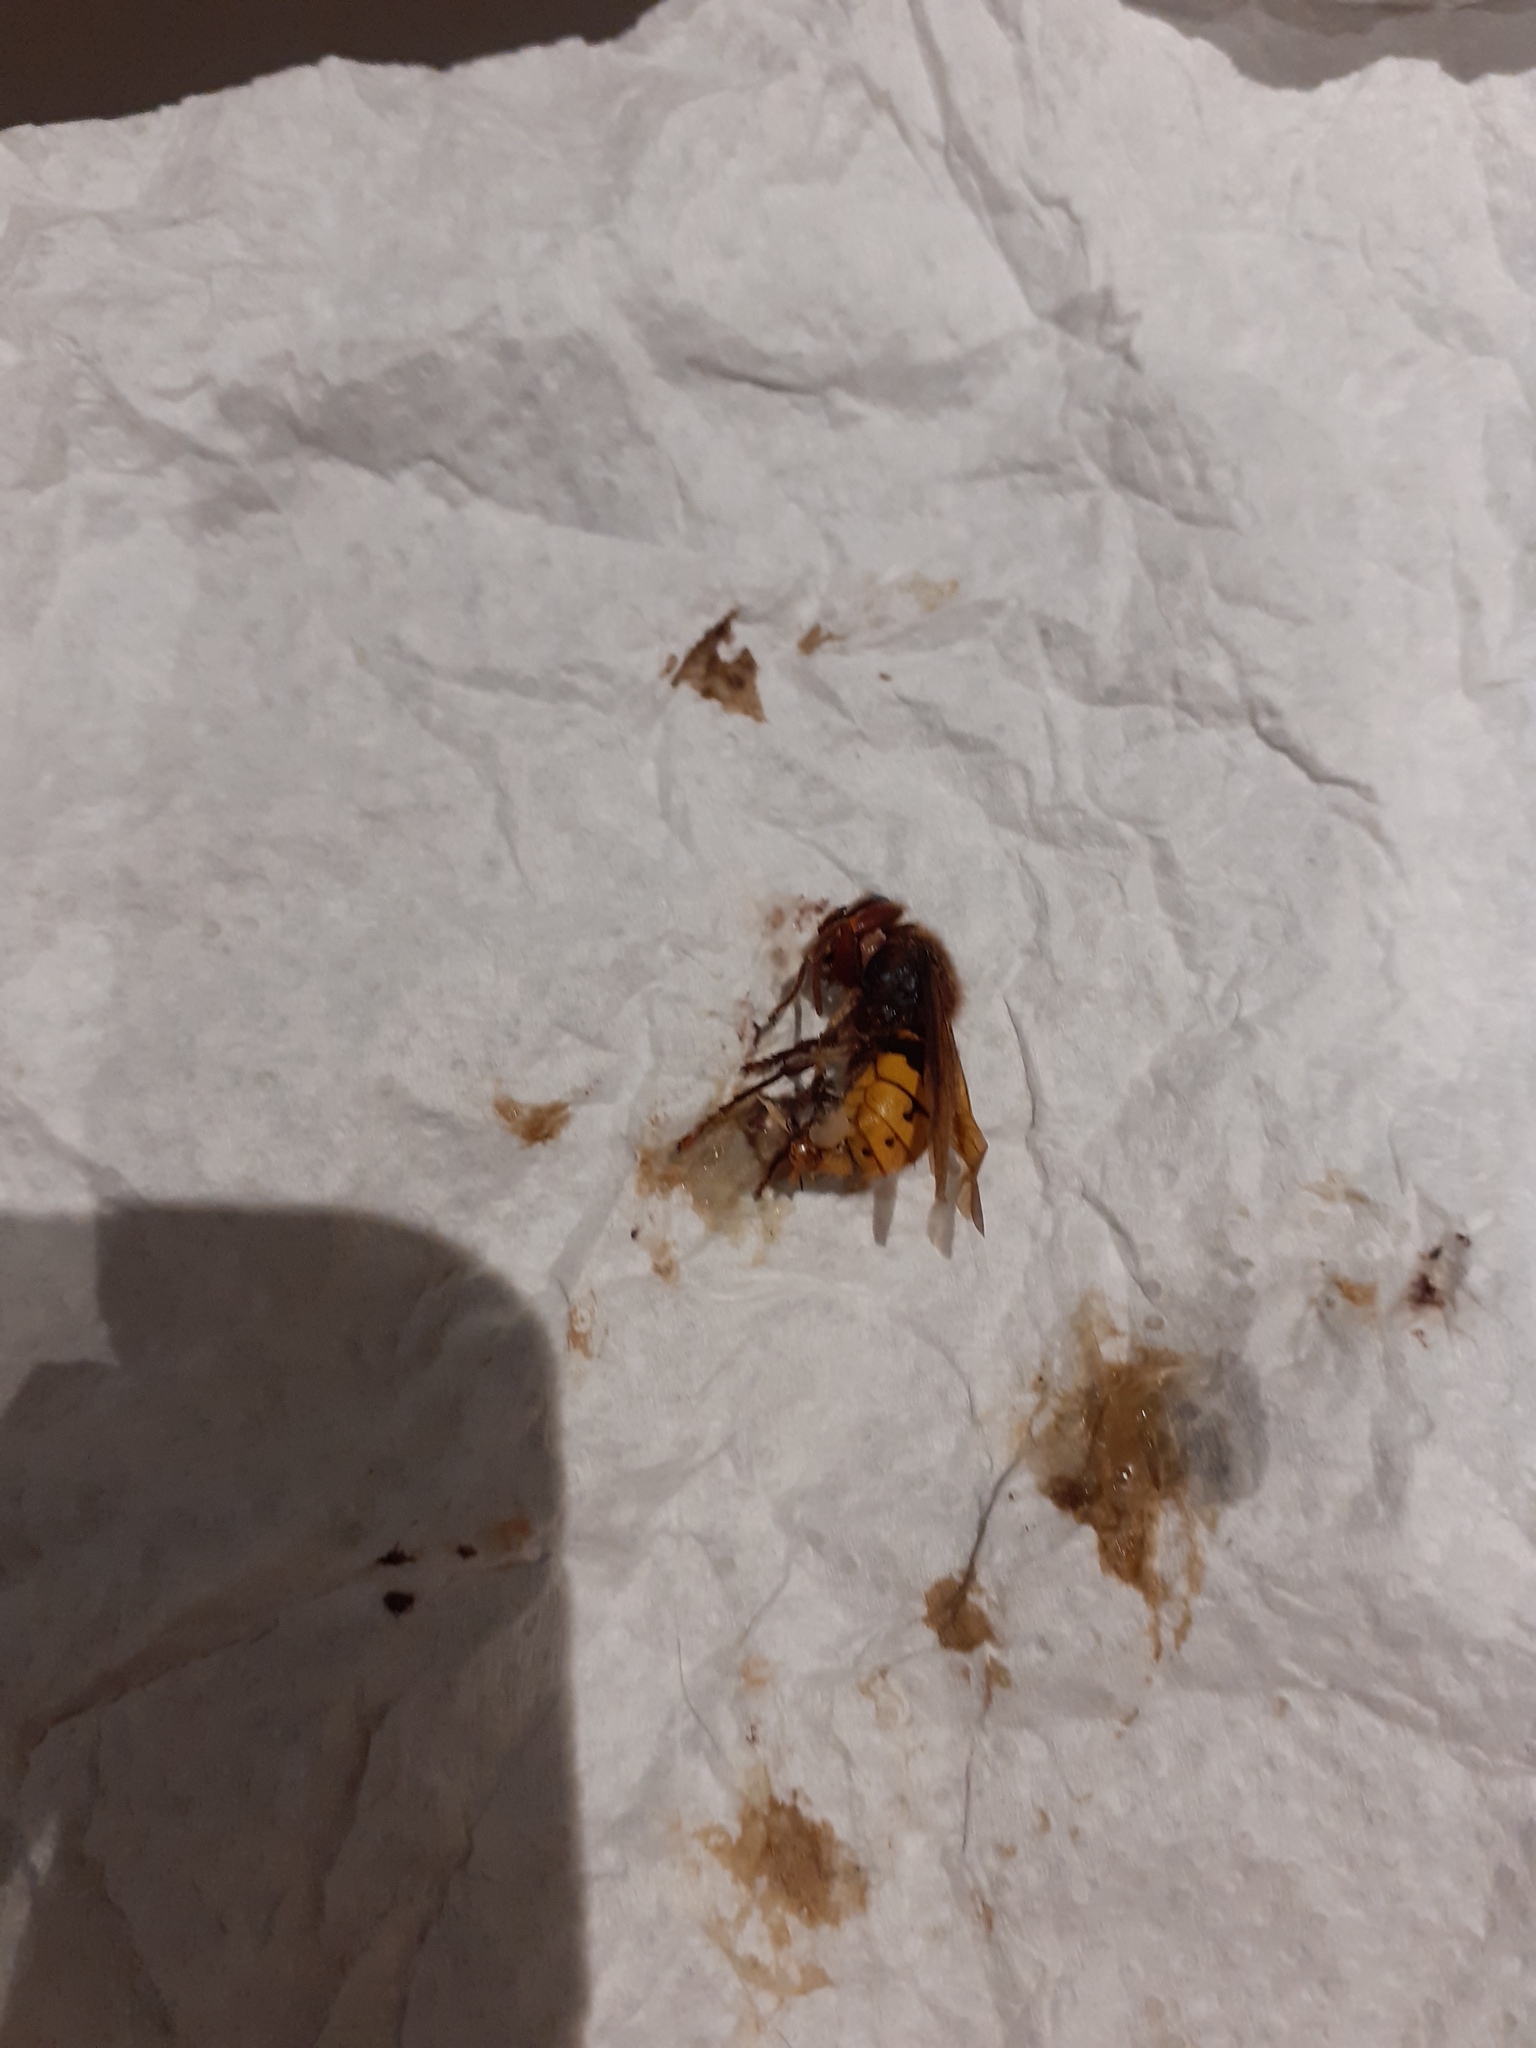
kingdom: Animalia
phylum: Arthropoda
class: Insecta
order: Hymenoptera
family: Vespidae
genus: Vespa
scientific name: Vespa crabro
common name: Hornet
